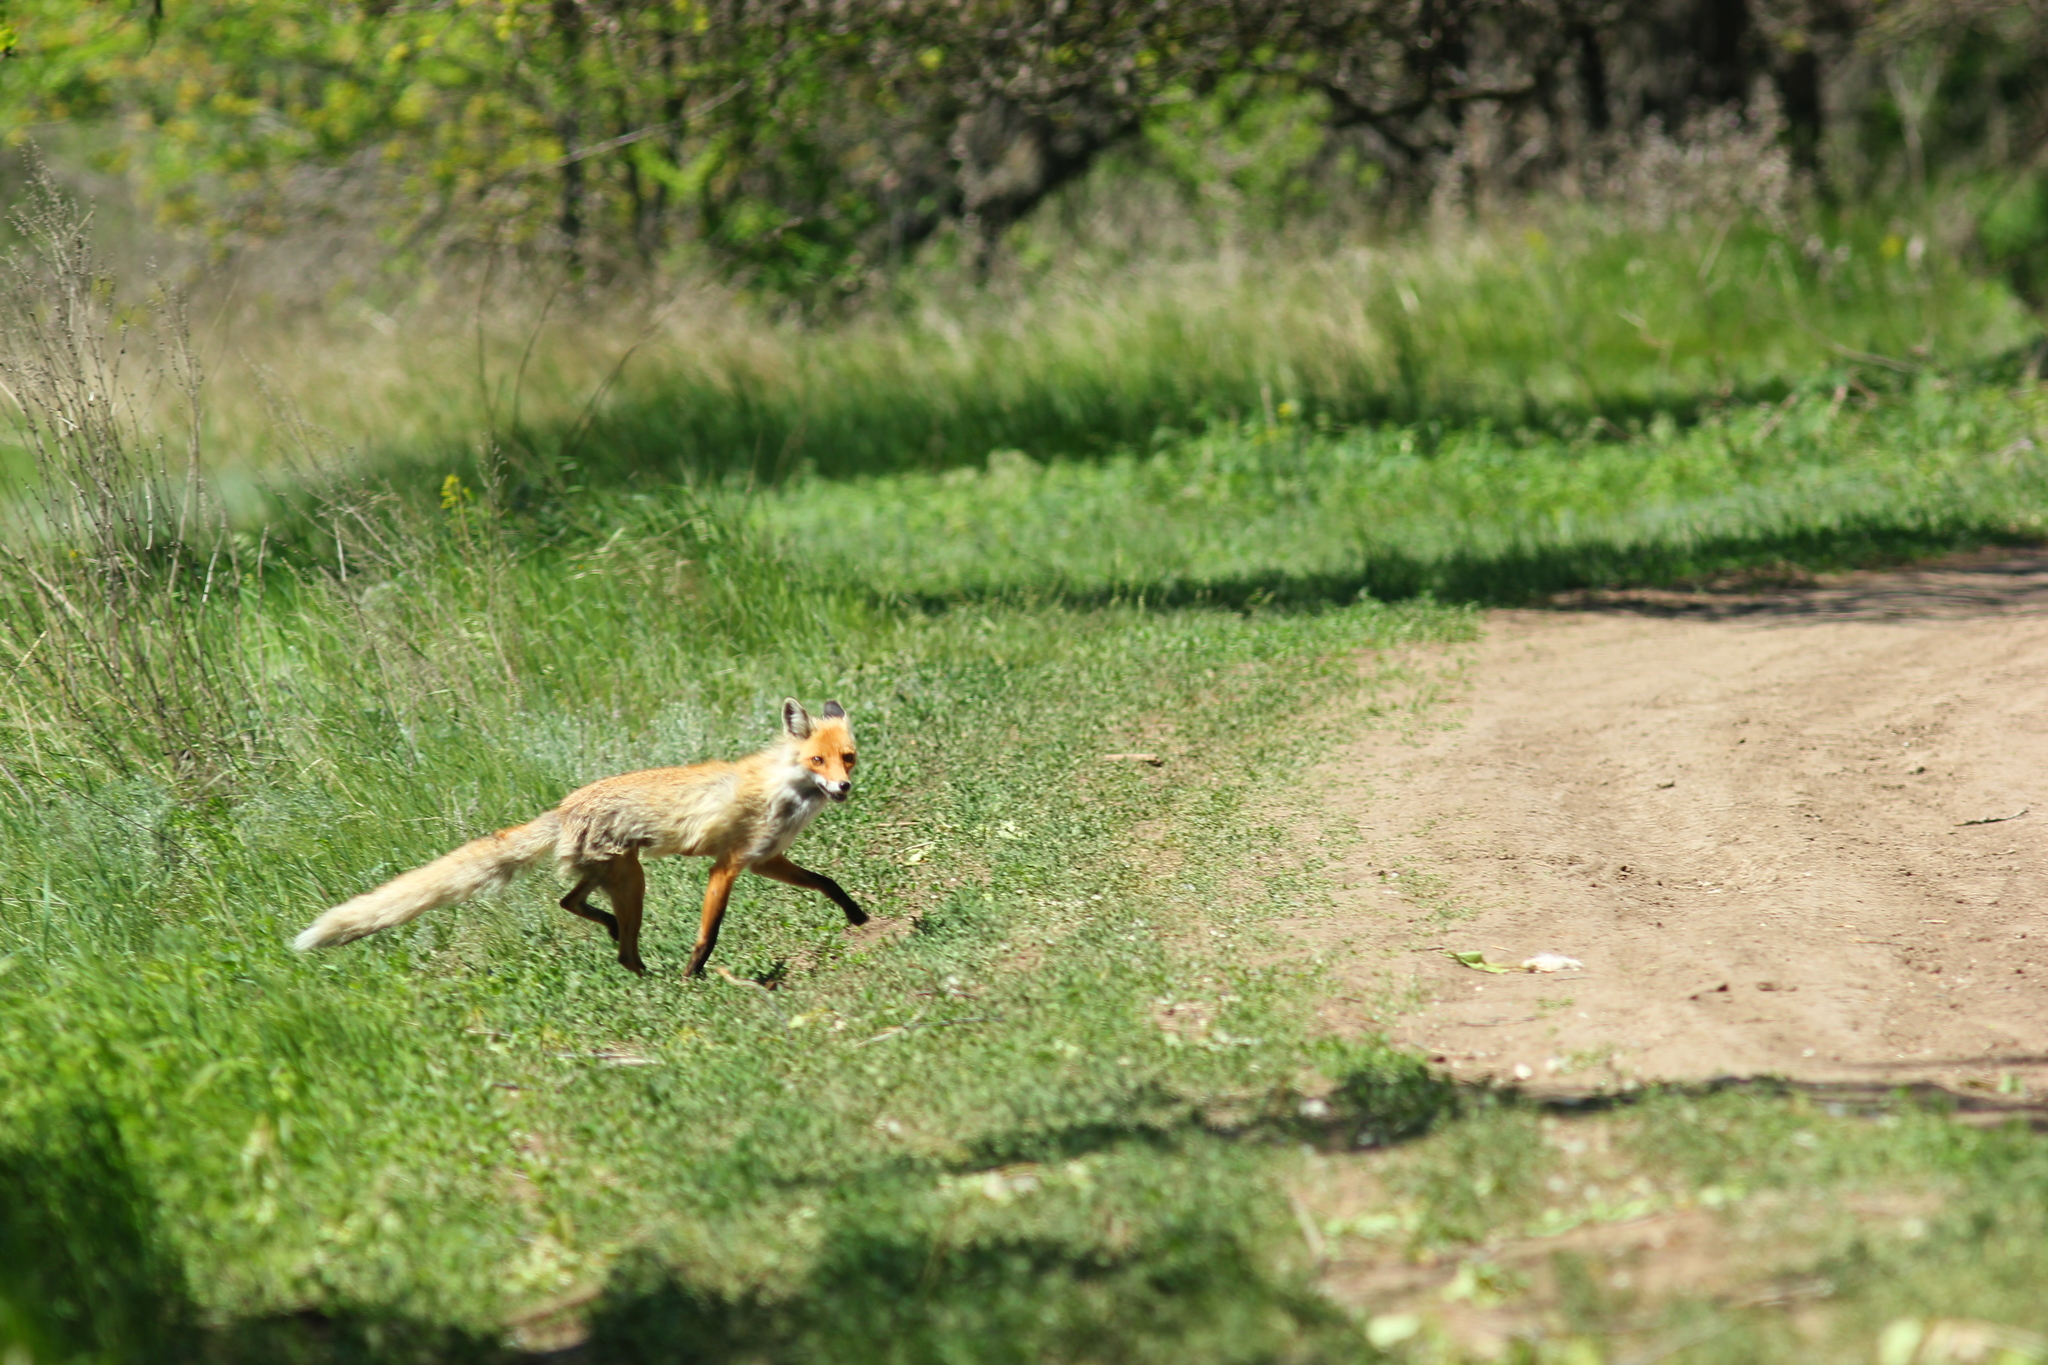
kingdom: Animalia
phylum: Chordata
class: Mammalia
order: Carnivora
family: Canidae
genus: Vulpes
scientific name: Vulpes vulpes
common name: Red fox
